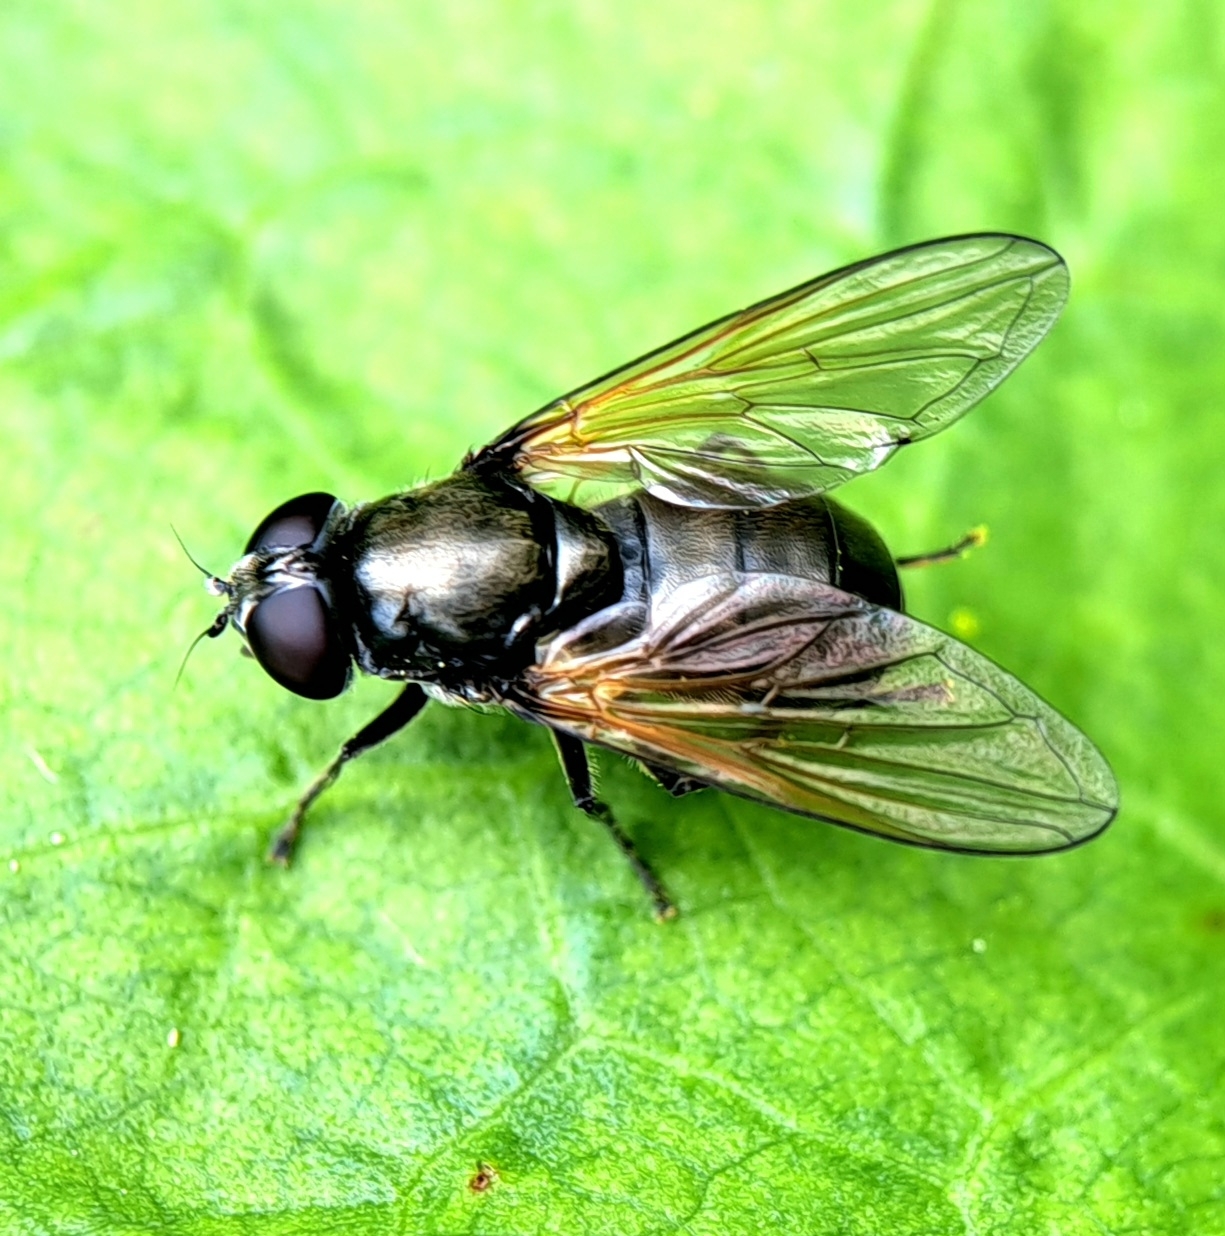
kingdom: Animalia
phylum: Arthropoda
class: Insecta
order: Diptera
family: Syrphidae
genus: Cheilosia
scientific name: Cheilosia impressa
